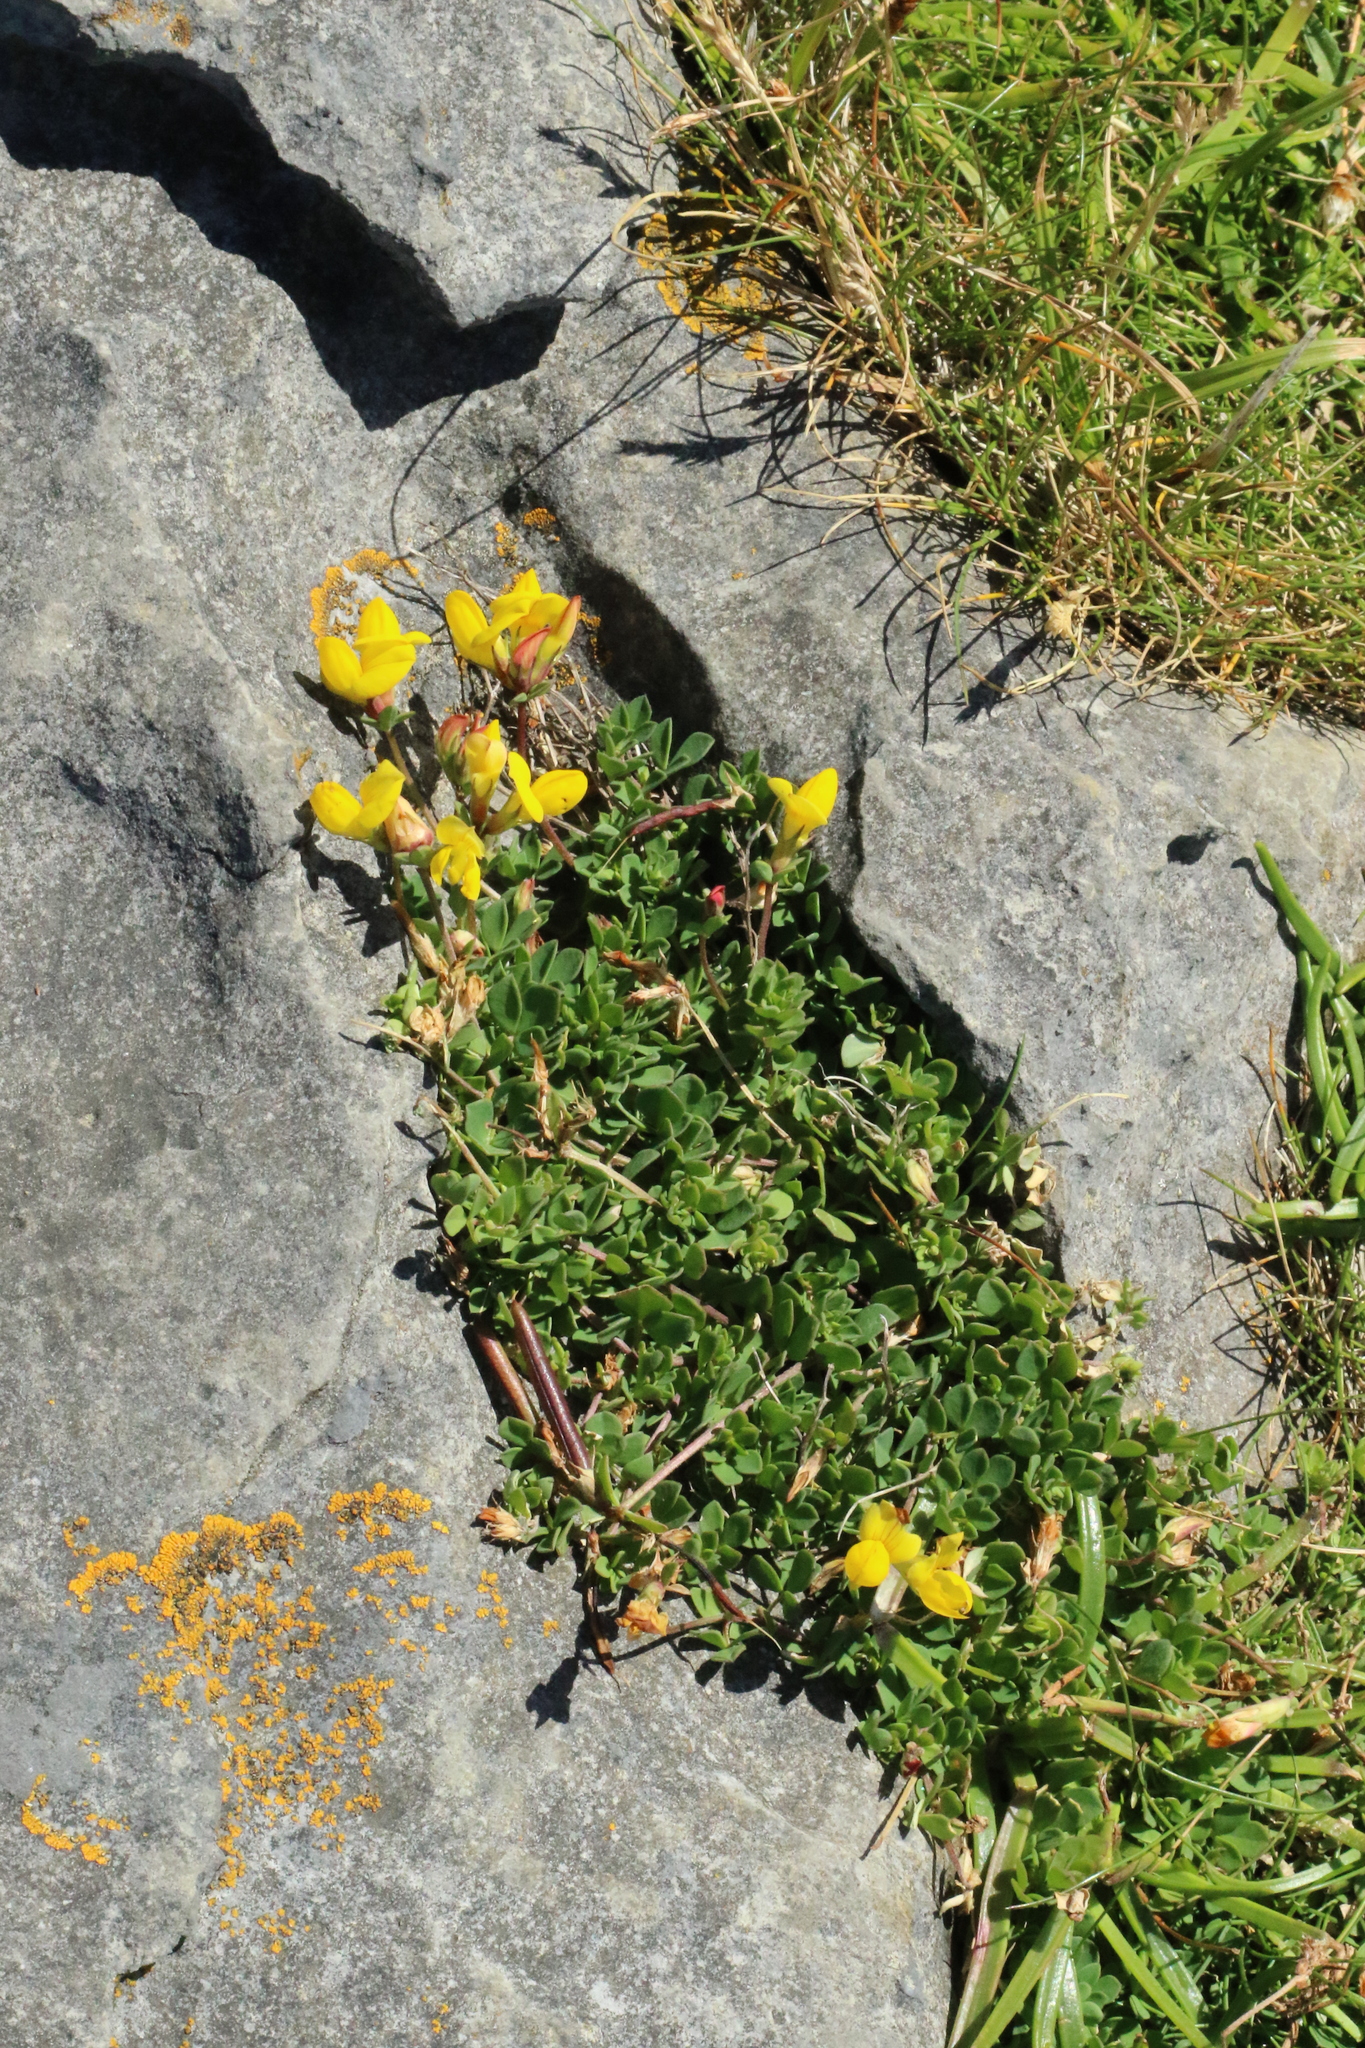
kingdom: Plantae
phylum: Tracheophyta
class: Magnoliopsida
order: Fabales
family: Fabaceae
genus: Lotus
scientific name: Lotus corniculatus
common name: Common bird's-foot-trefoil
